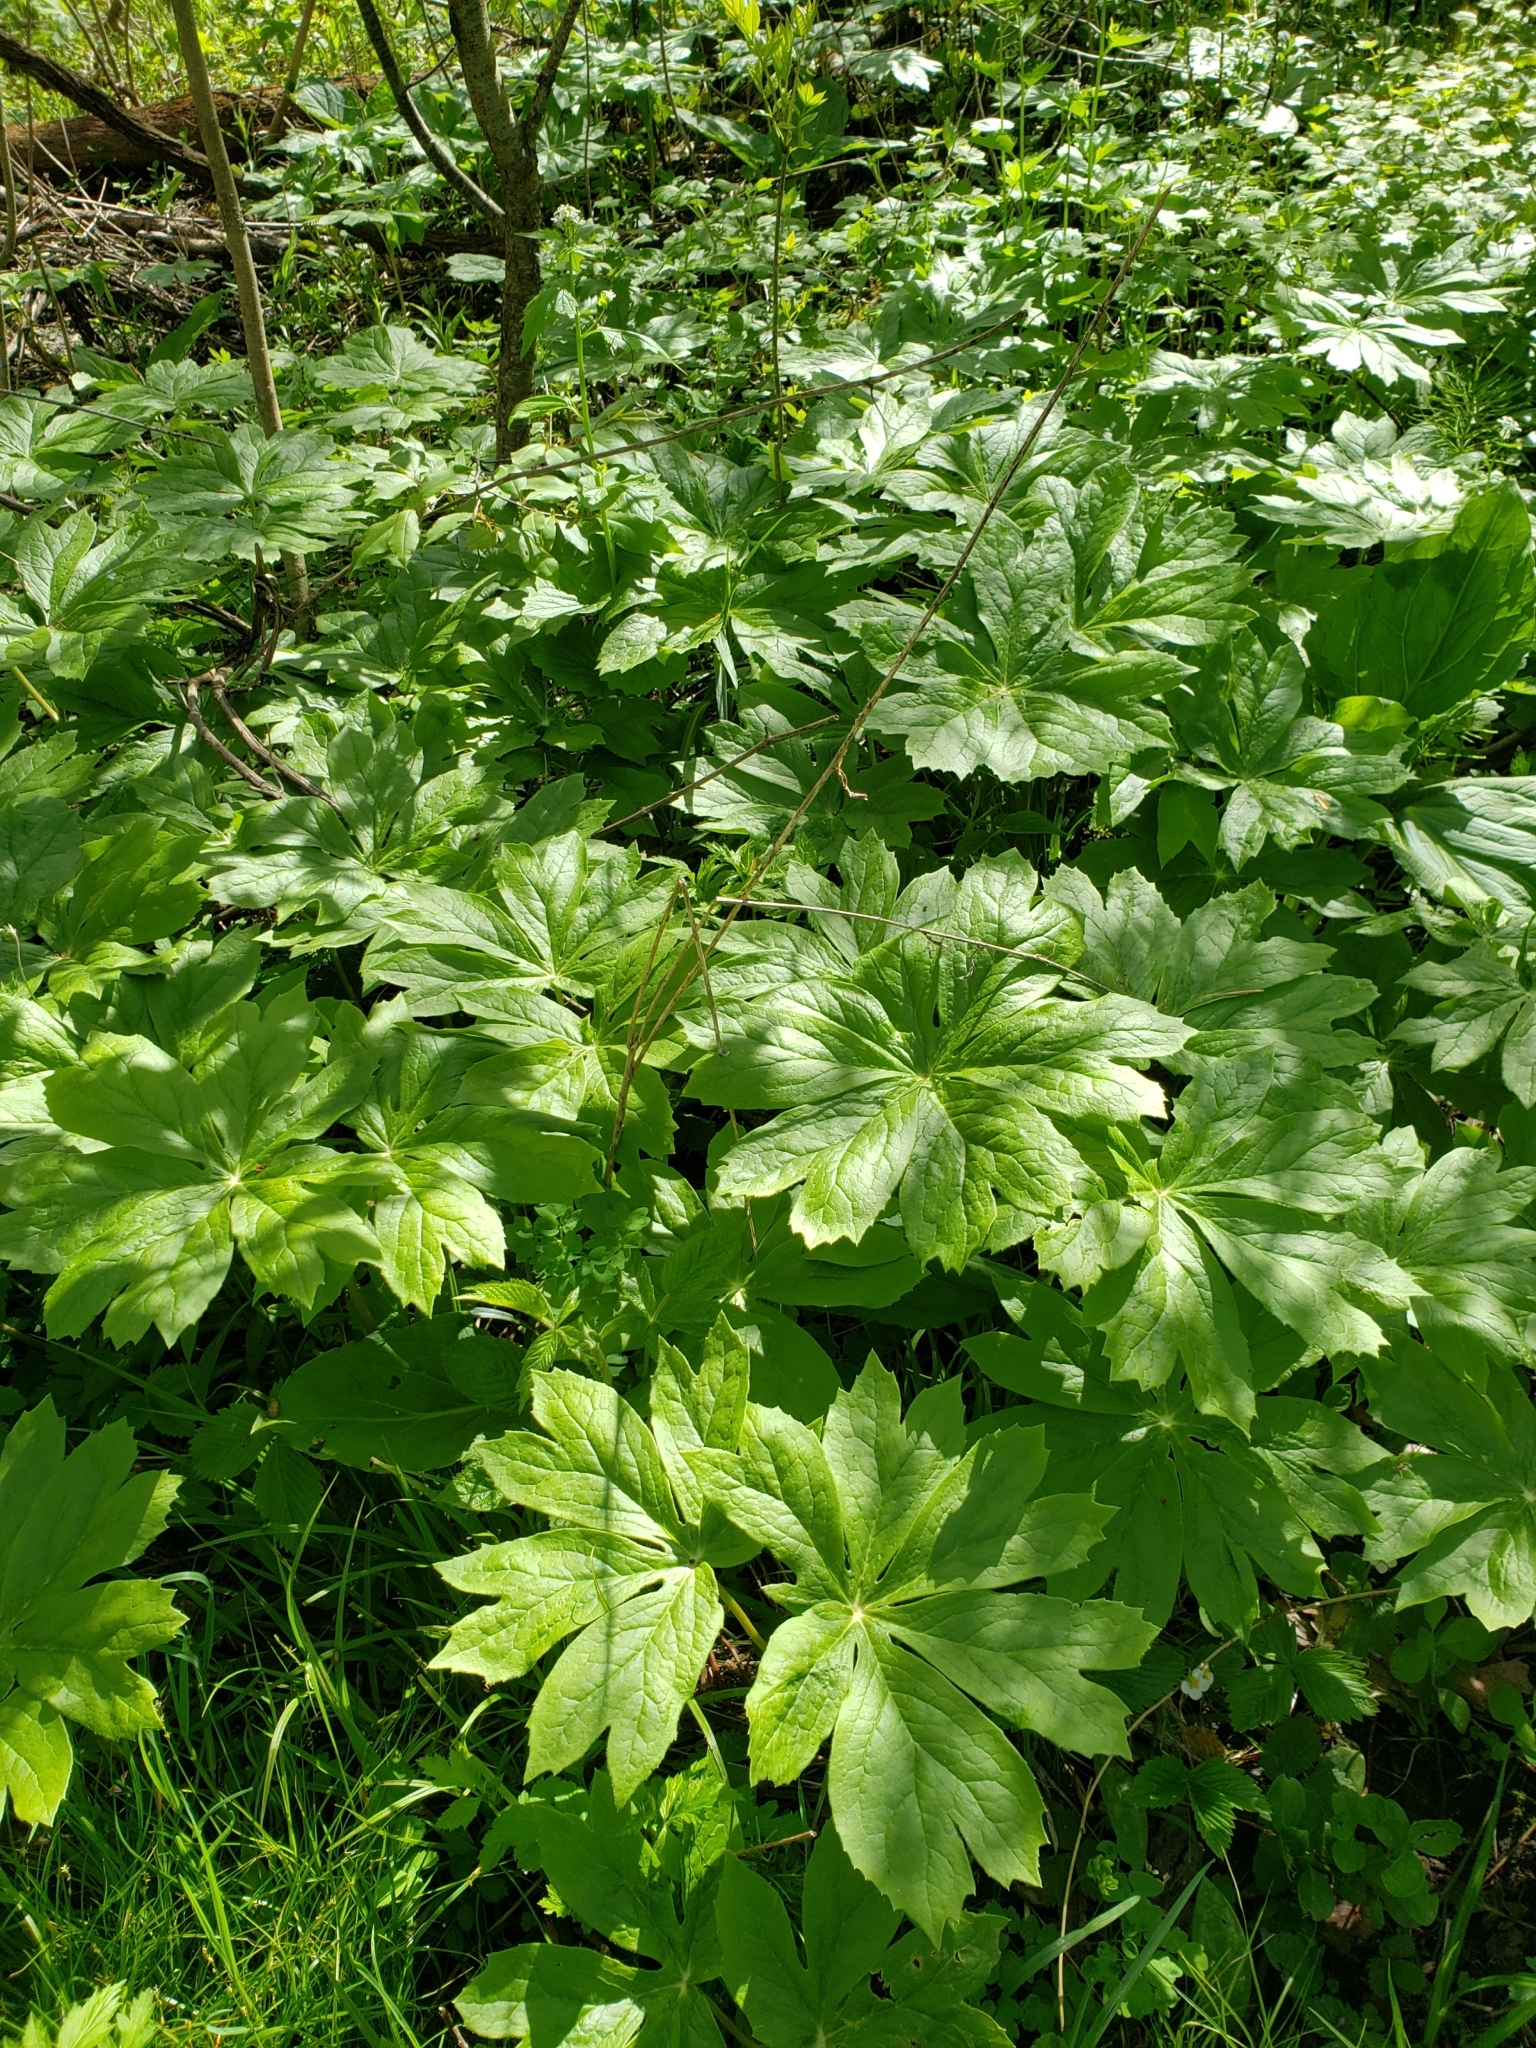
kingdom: Plantae
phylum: Tracheophyta
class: Magnoliopsida
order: Ranunculales
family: Berberidaceae
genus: Podophyllum
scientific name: Podophyllum peltatum
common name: Wild mandrake
